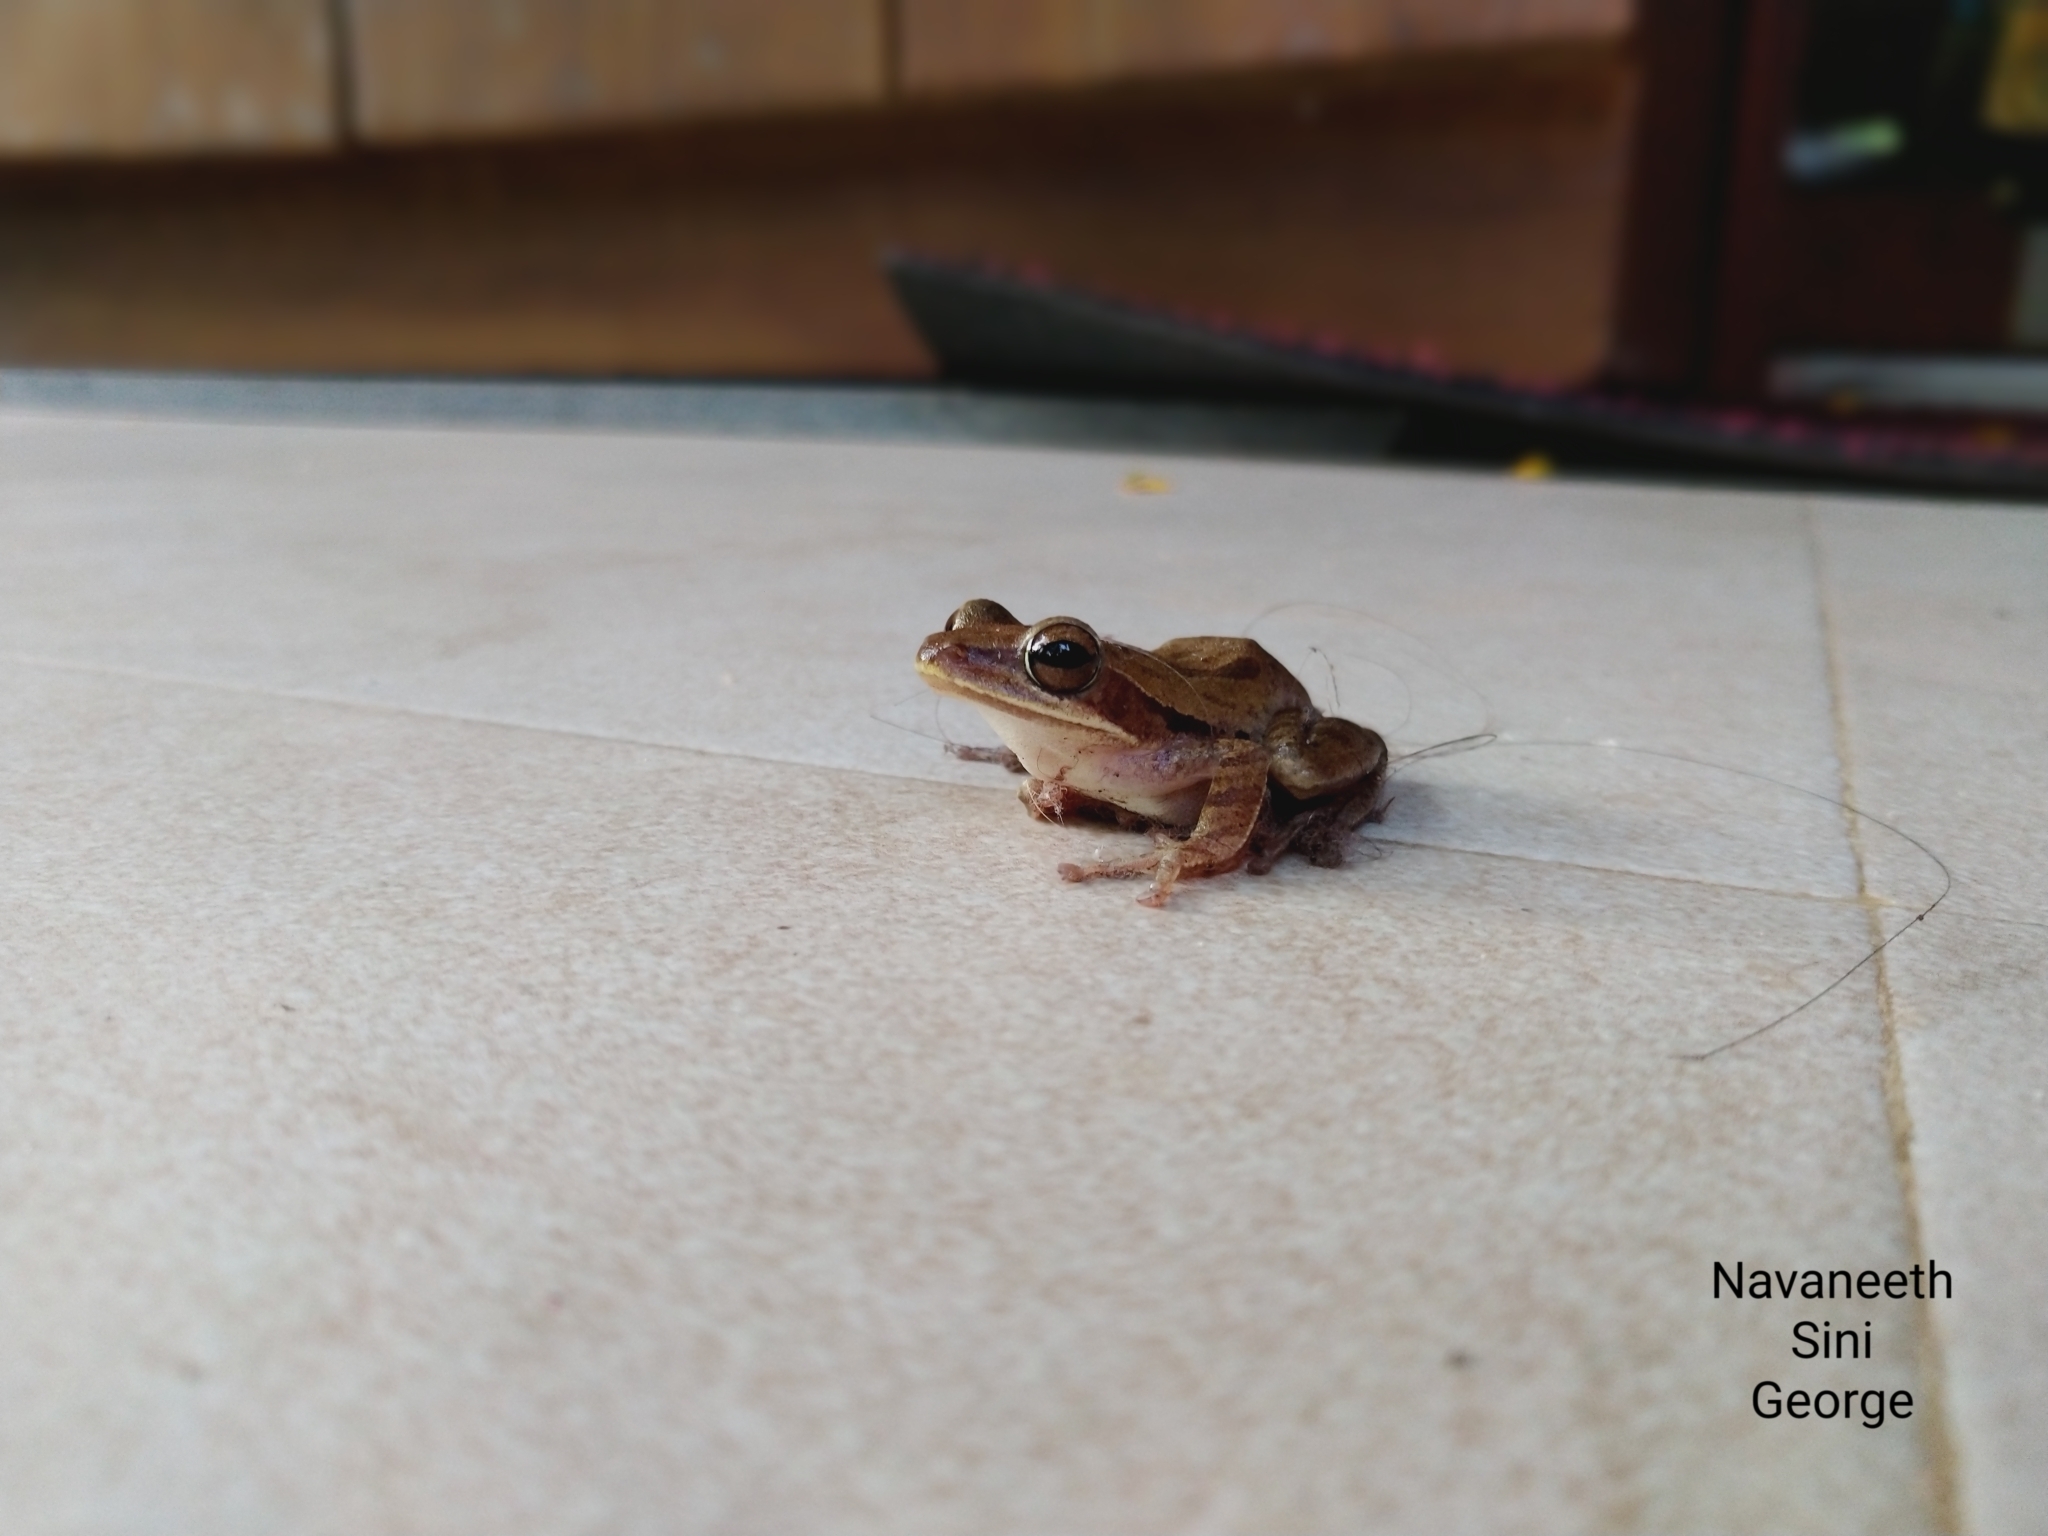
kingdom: Animalia
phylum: Chordata
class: Amphibia
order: Anura
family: Rhacophoridae
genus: Polypedates
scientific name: Polypedates maculatus
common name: Himalayan tree frog
